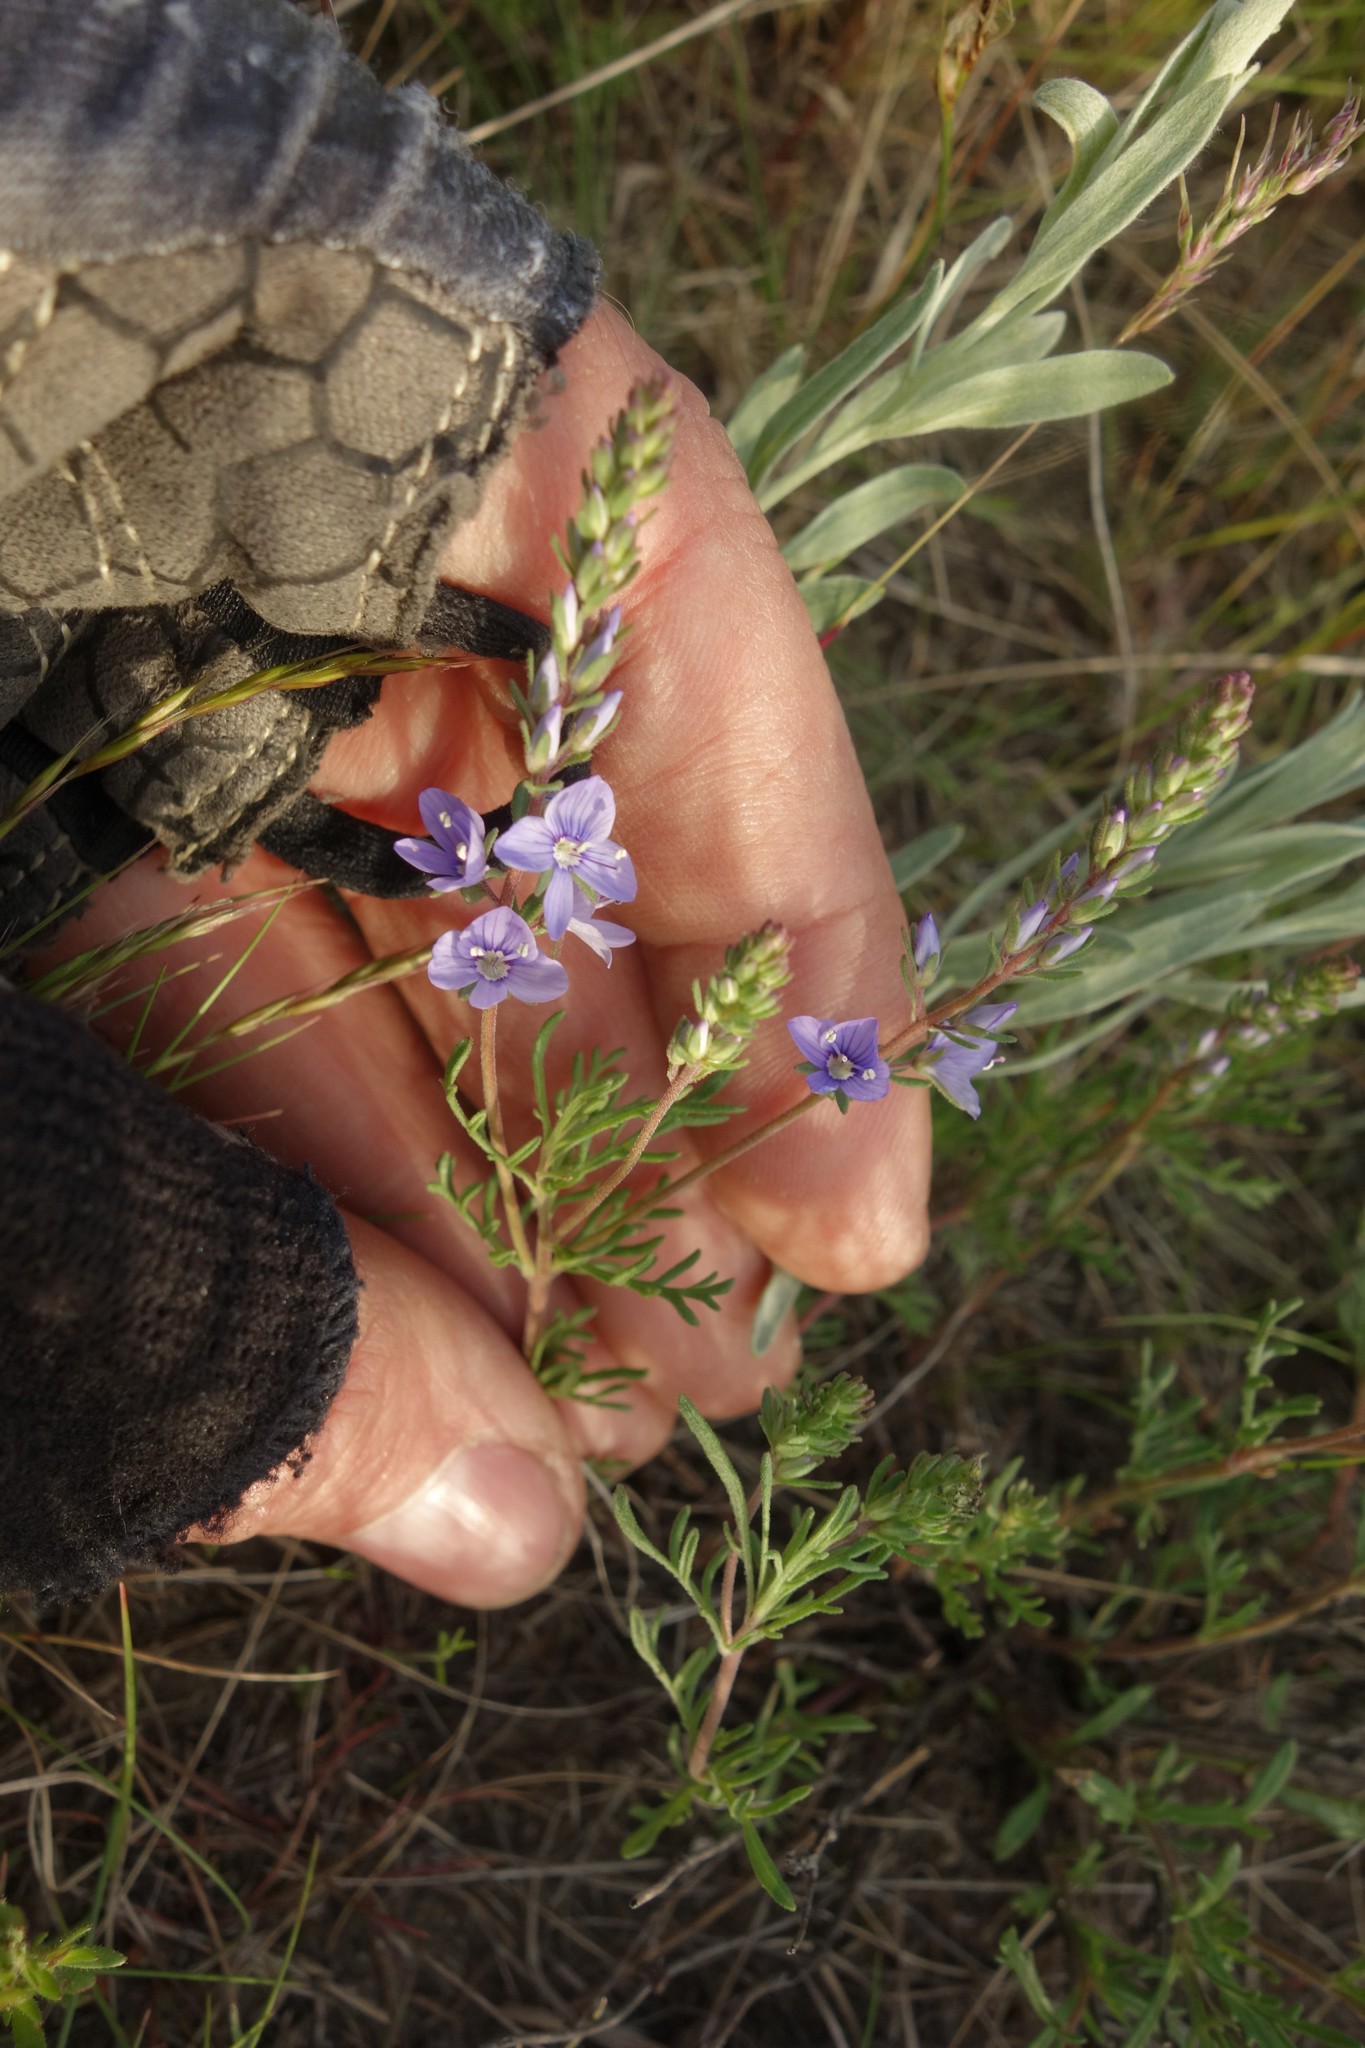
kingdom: Plantae
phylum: Tracheophyta
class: Magnoliopsida
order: Lamiales
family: Plantaginaceae
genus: Veronica
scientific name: Veronica multifida
